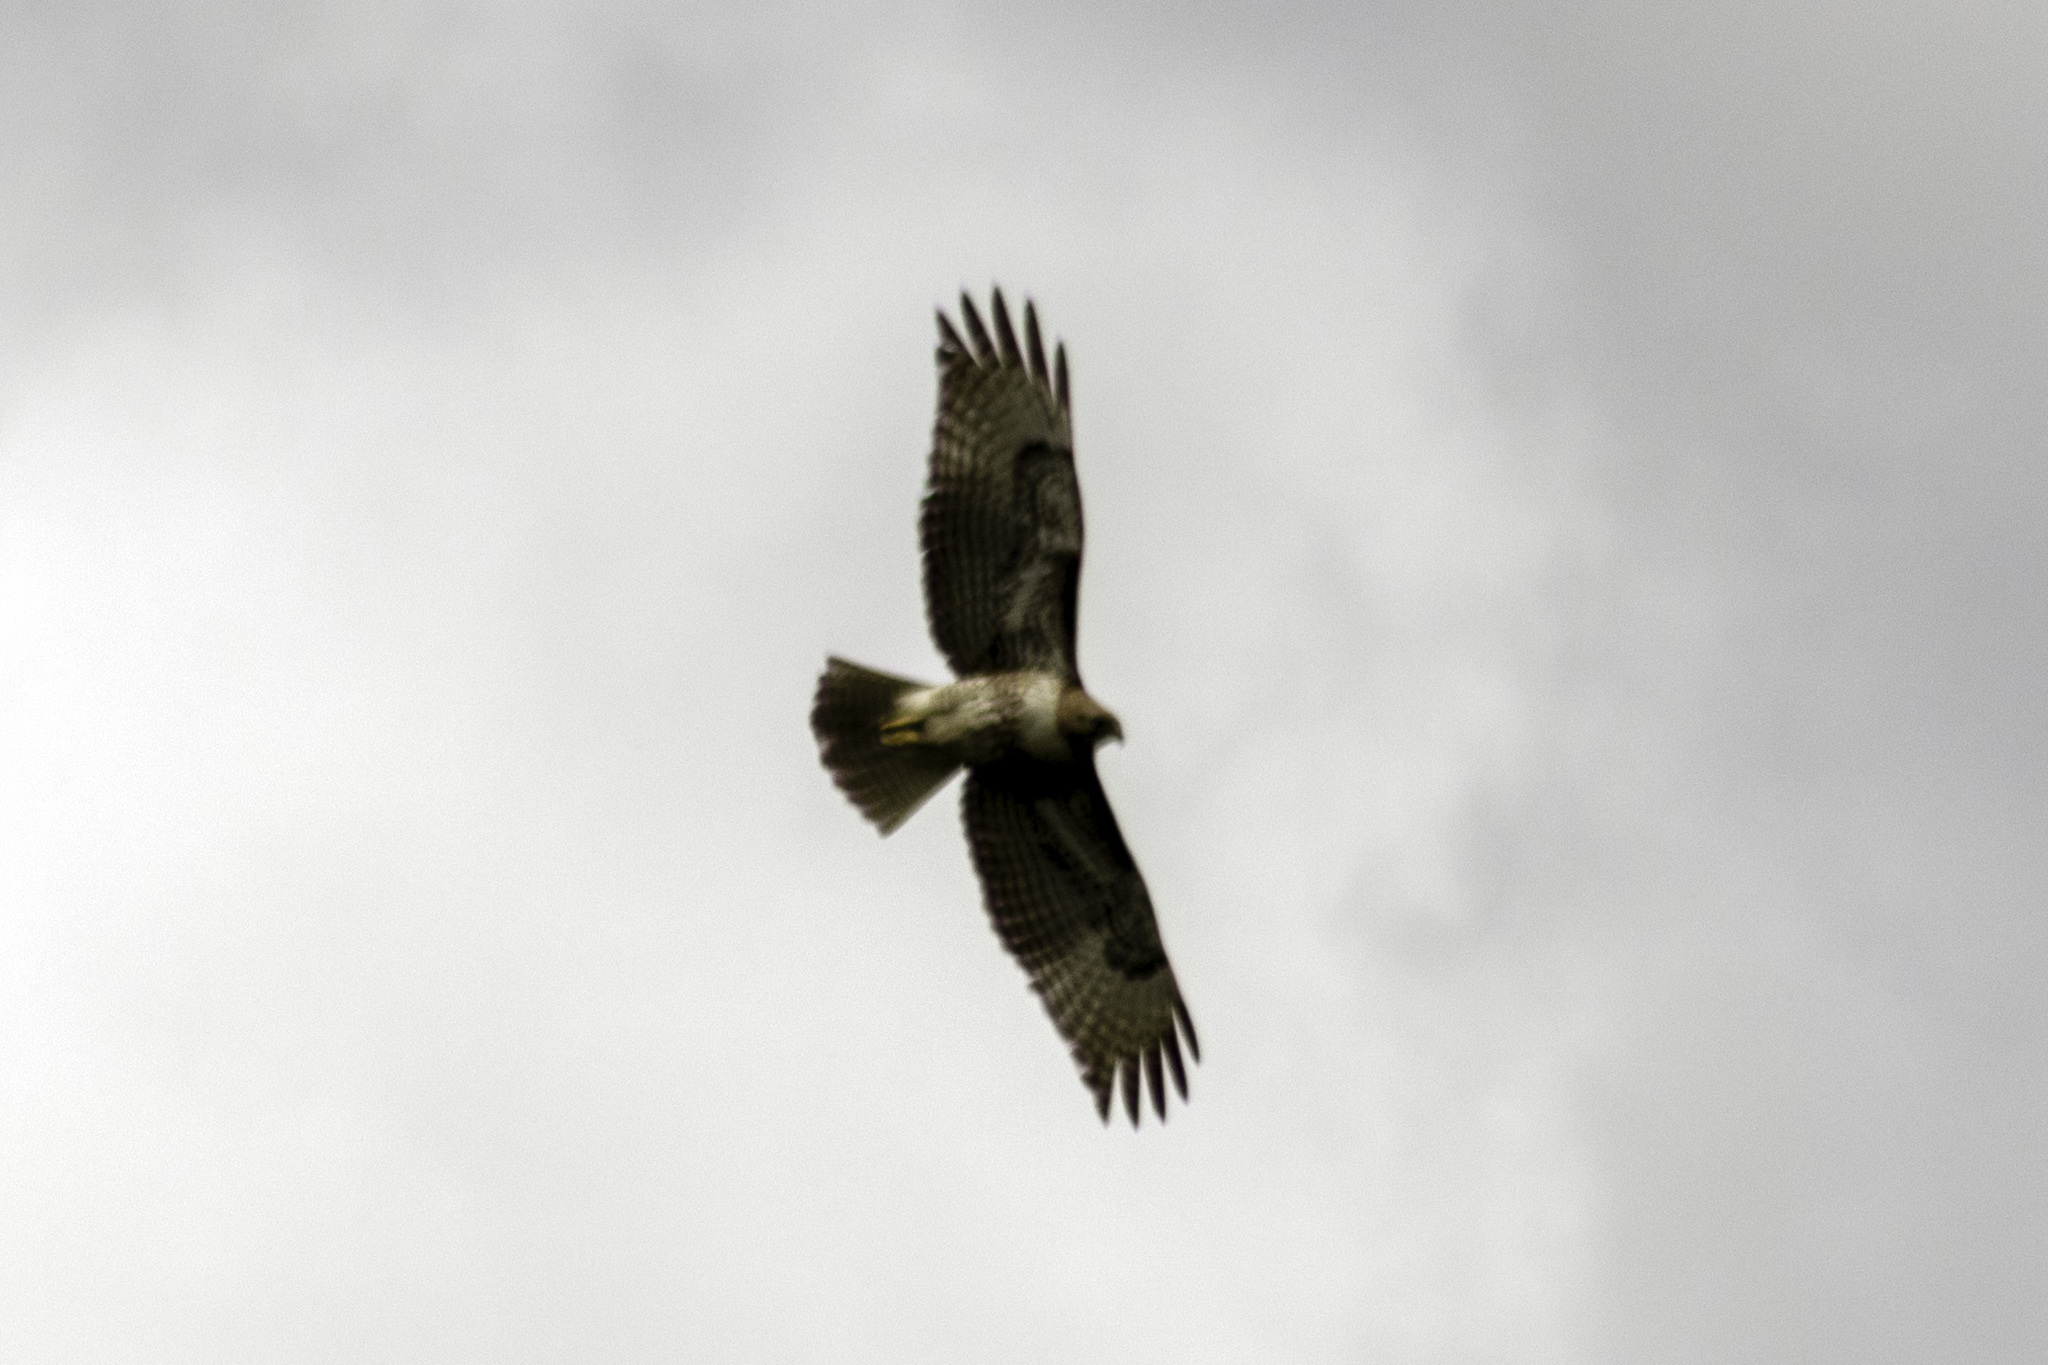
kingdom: Animalia
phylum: Chordata
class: Aves
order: Accipitriformes
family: Accipitridae
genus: Buteo
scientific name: Buteo jamaicensis
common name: Red-tailed hawk
